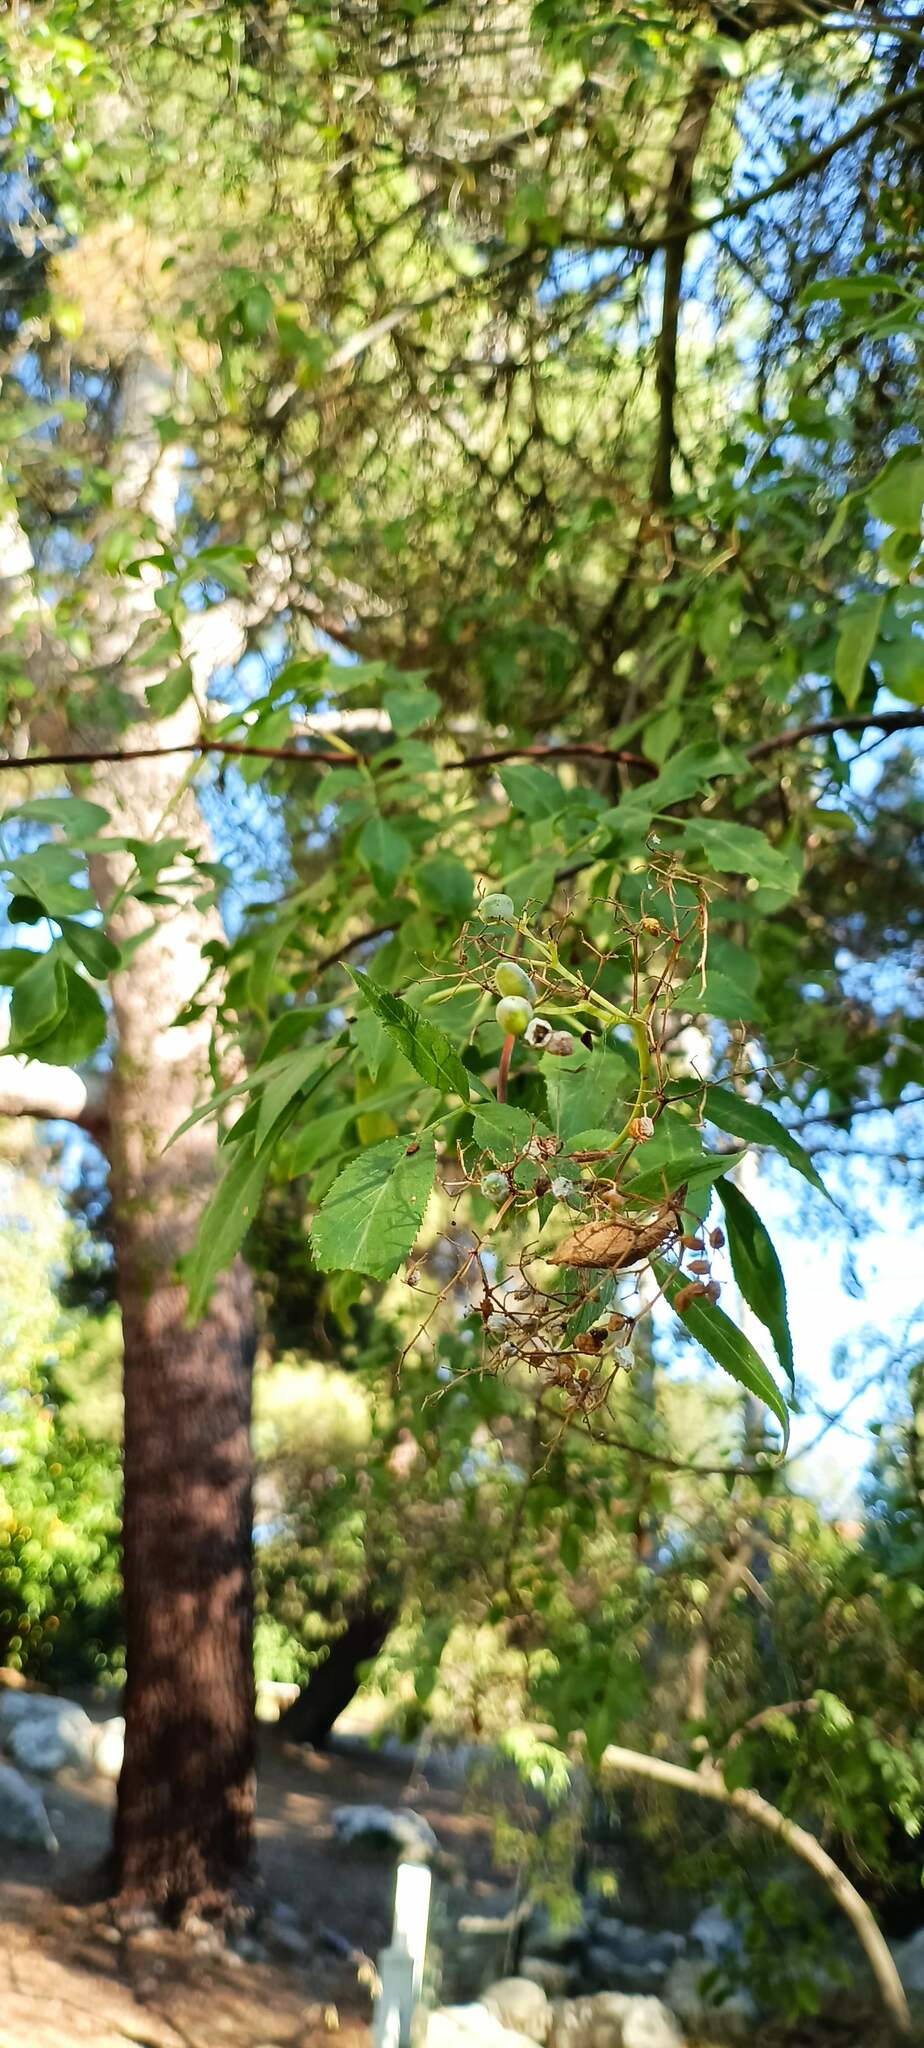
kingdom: Plantae
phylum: Tracheophyta
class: Magnoliopsida
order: Dipsacales
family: Viburnaceae
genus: Sambucus
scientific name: Sambucus cerulea
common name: Blue elder
